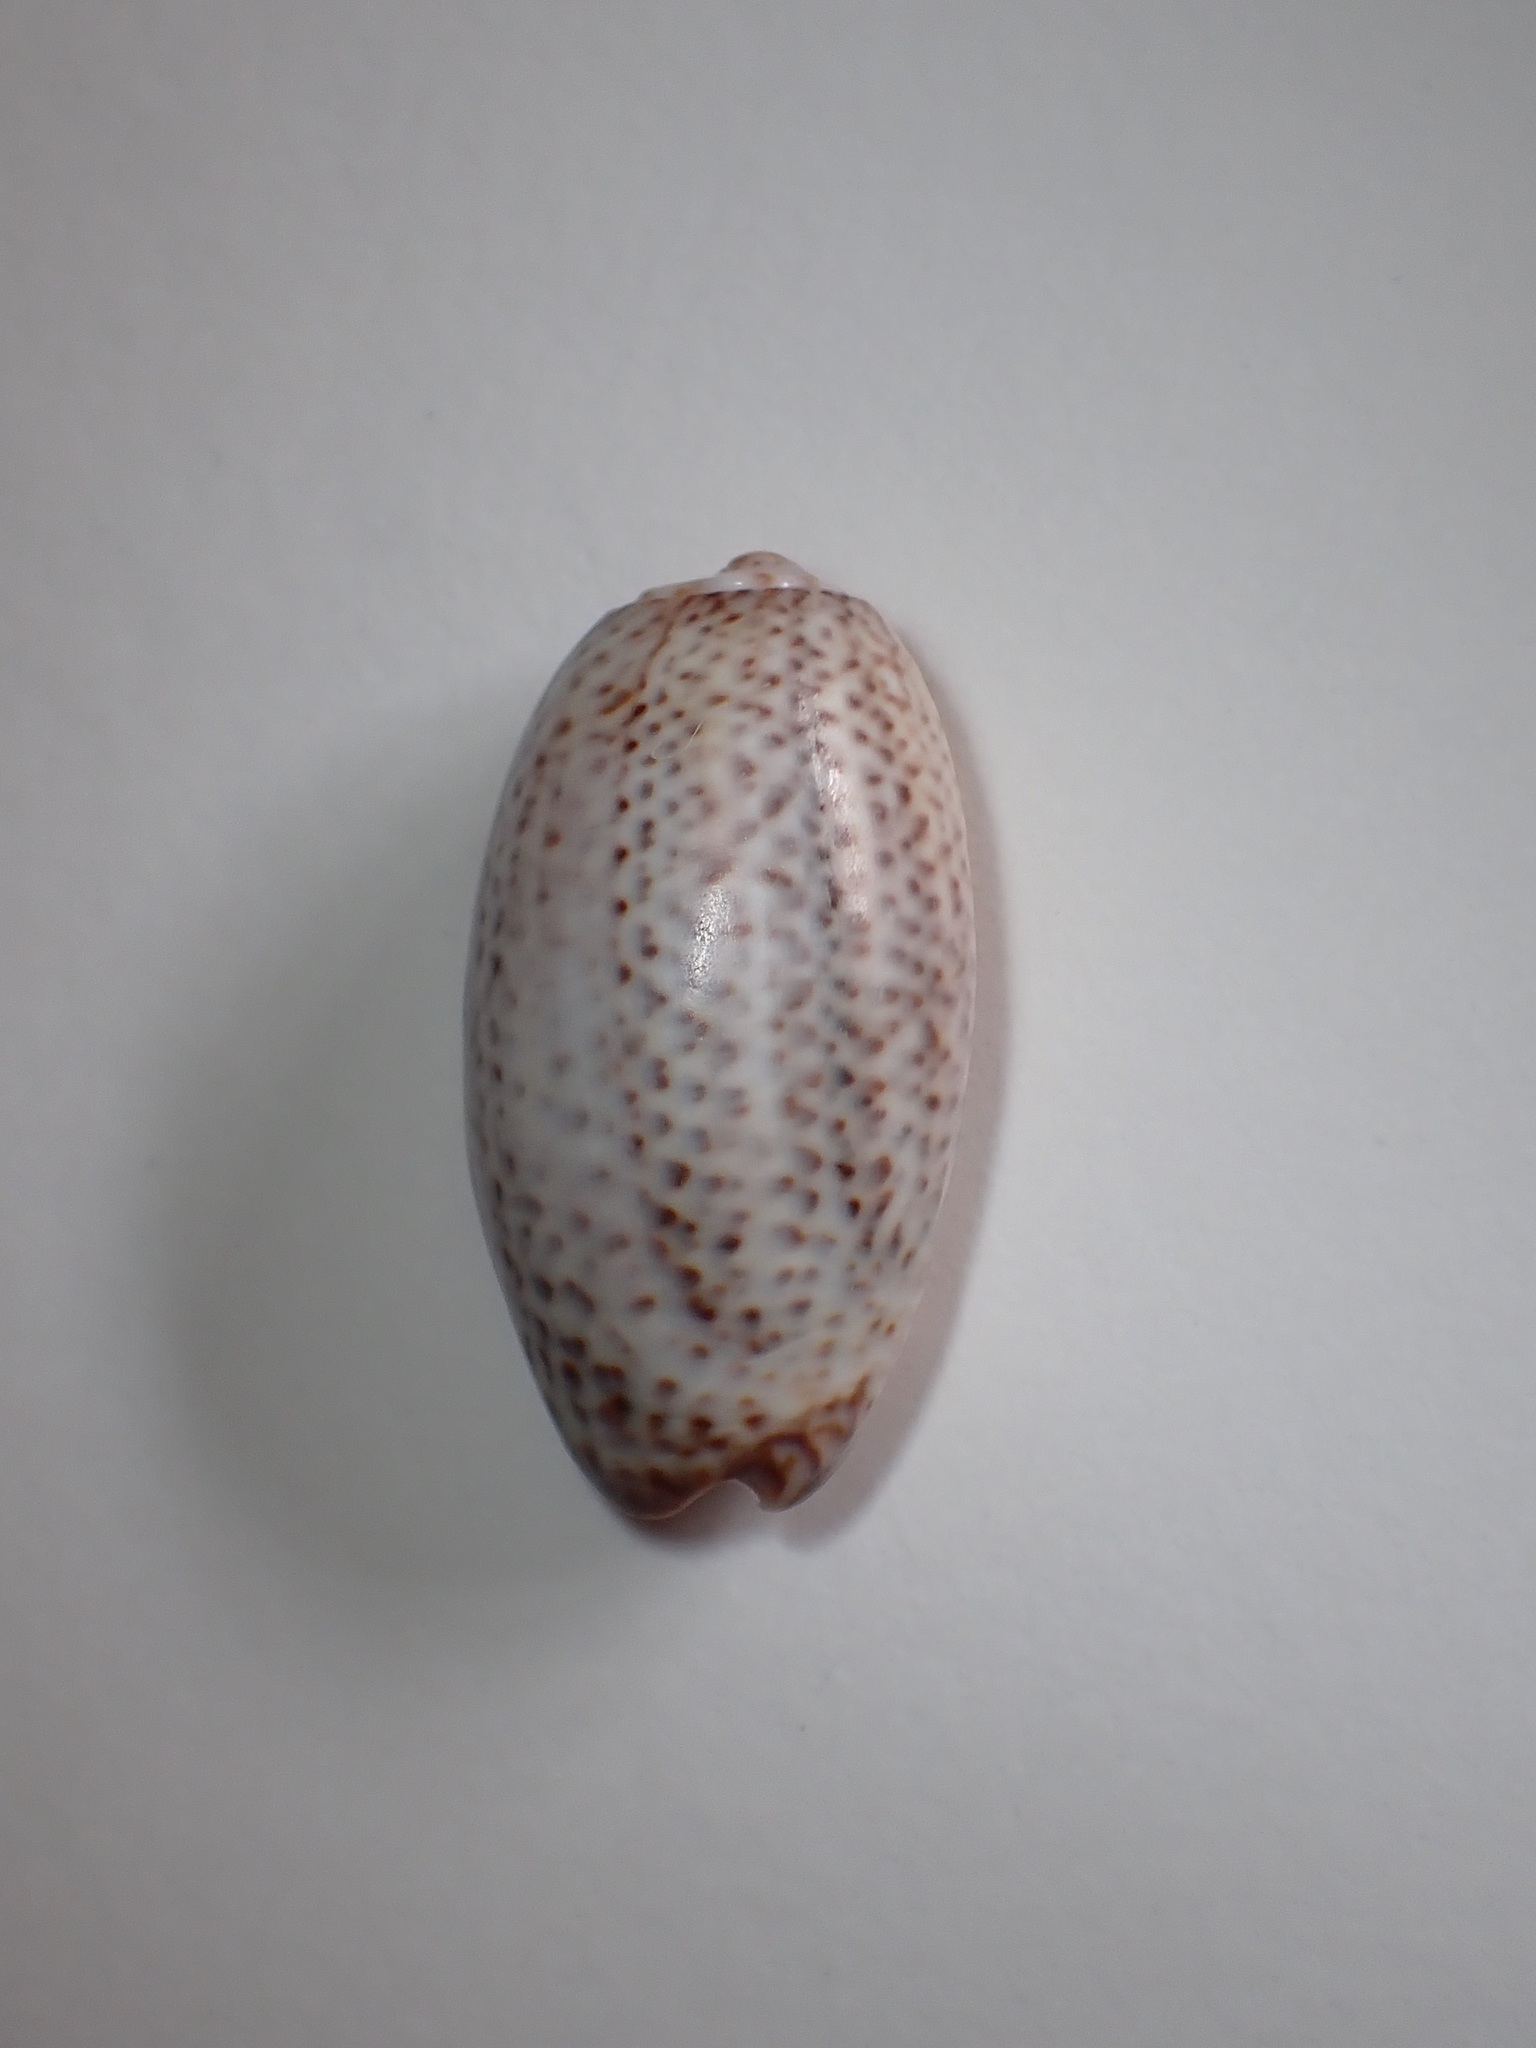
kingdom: Animalia
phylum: Mollusca
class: Gastropoda
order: Neogastropoda
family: Olividae
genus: Oliva
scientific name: Oliva bulbosa
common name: Inflated olive
